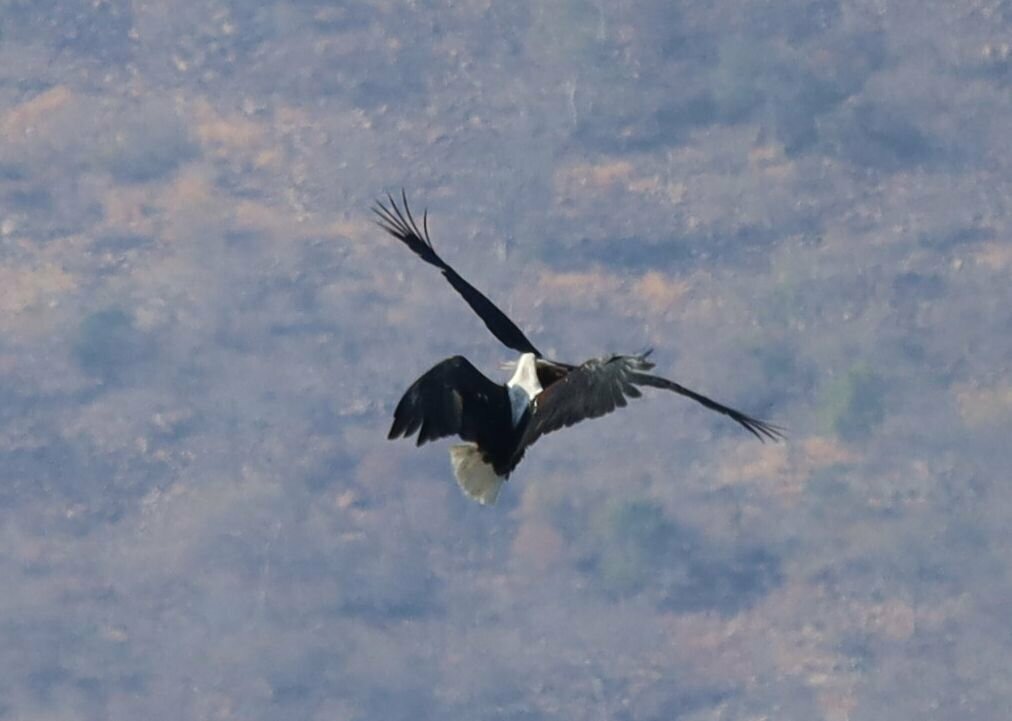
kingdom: Animalia
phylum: Chordata
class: Aves
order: Accipitriformes
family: Accipitridae
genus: Haliaeetus
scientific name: Haliaeetus vocifer
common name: African fish eagle
